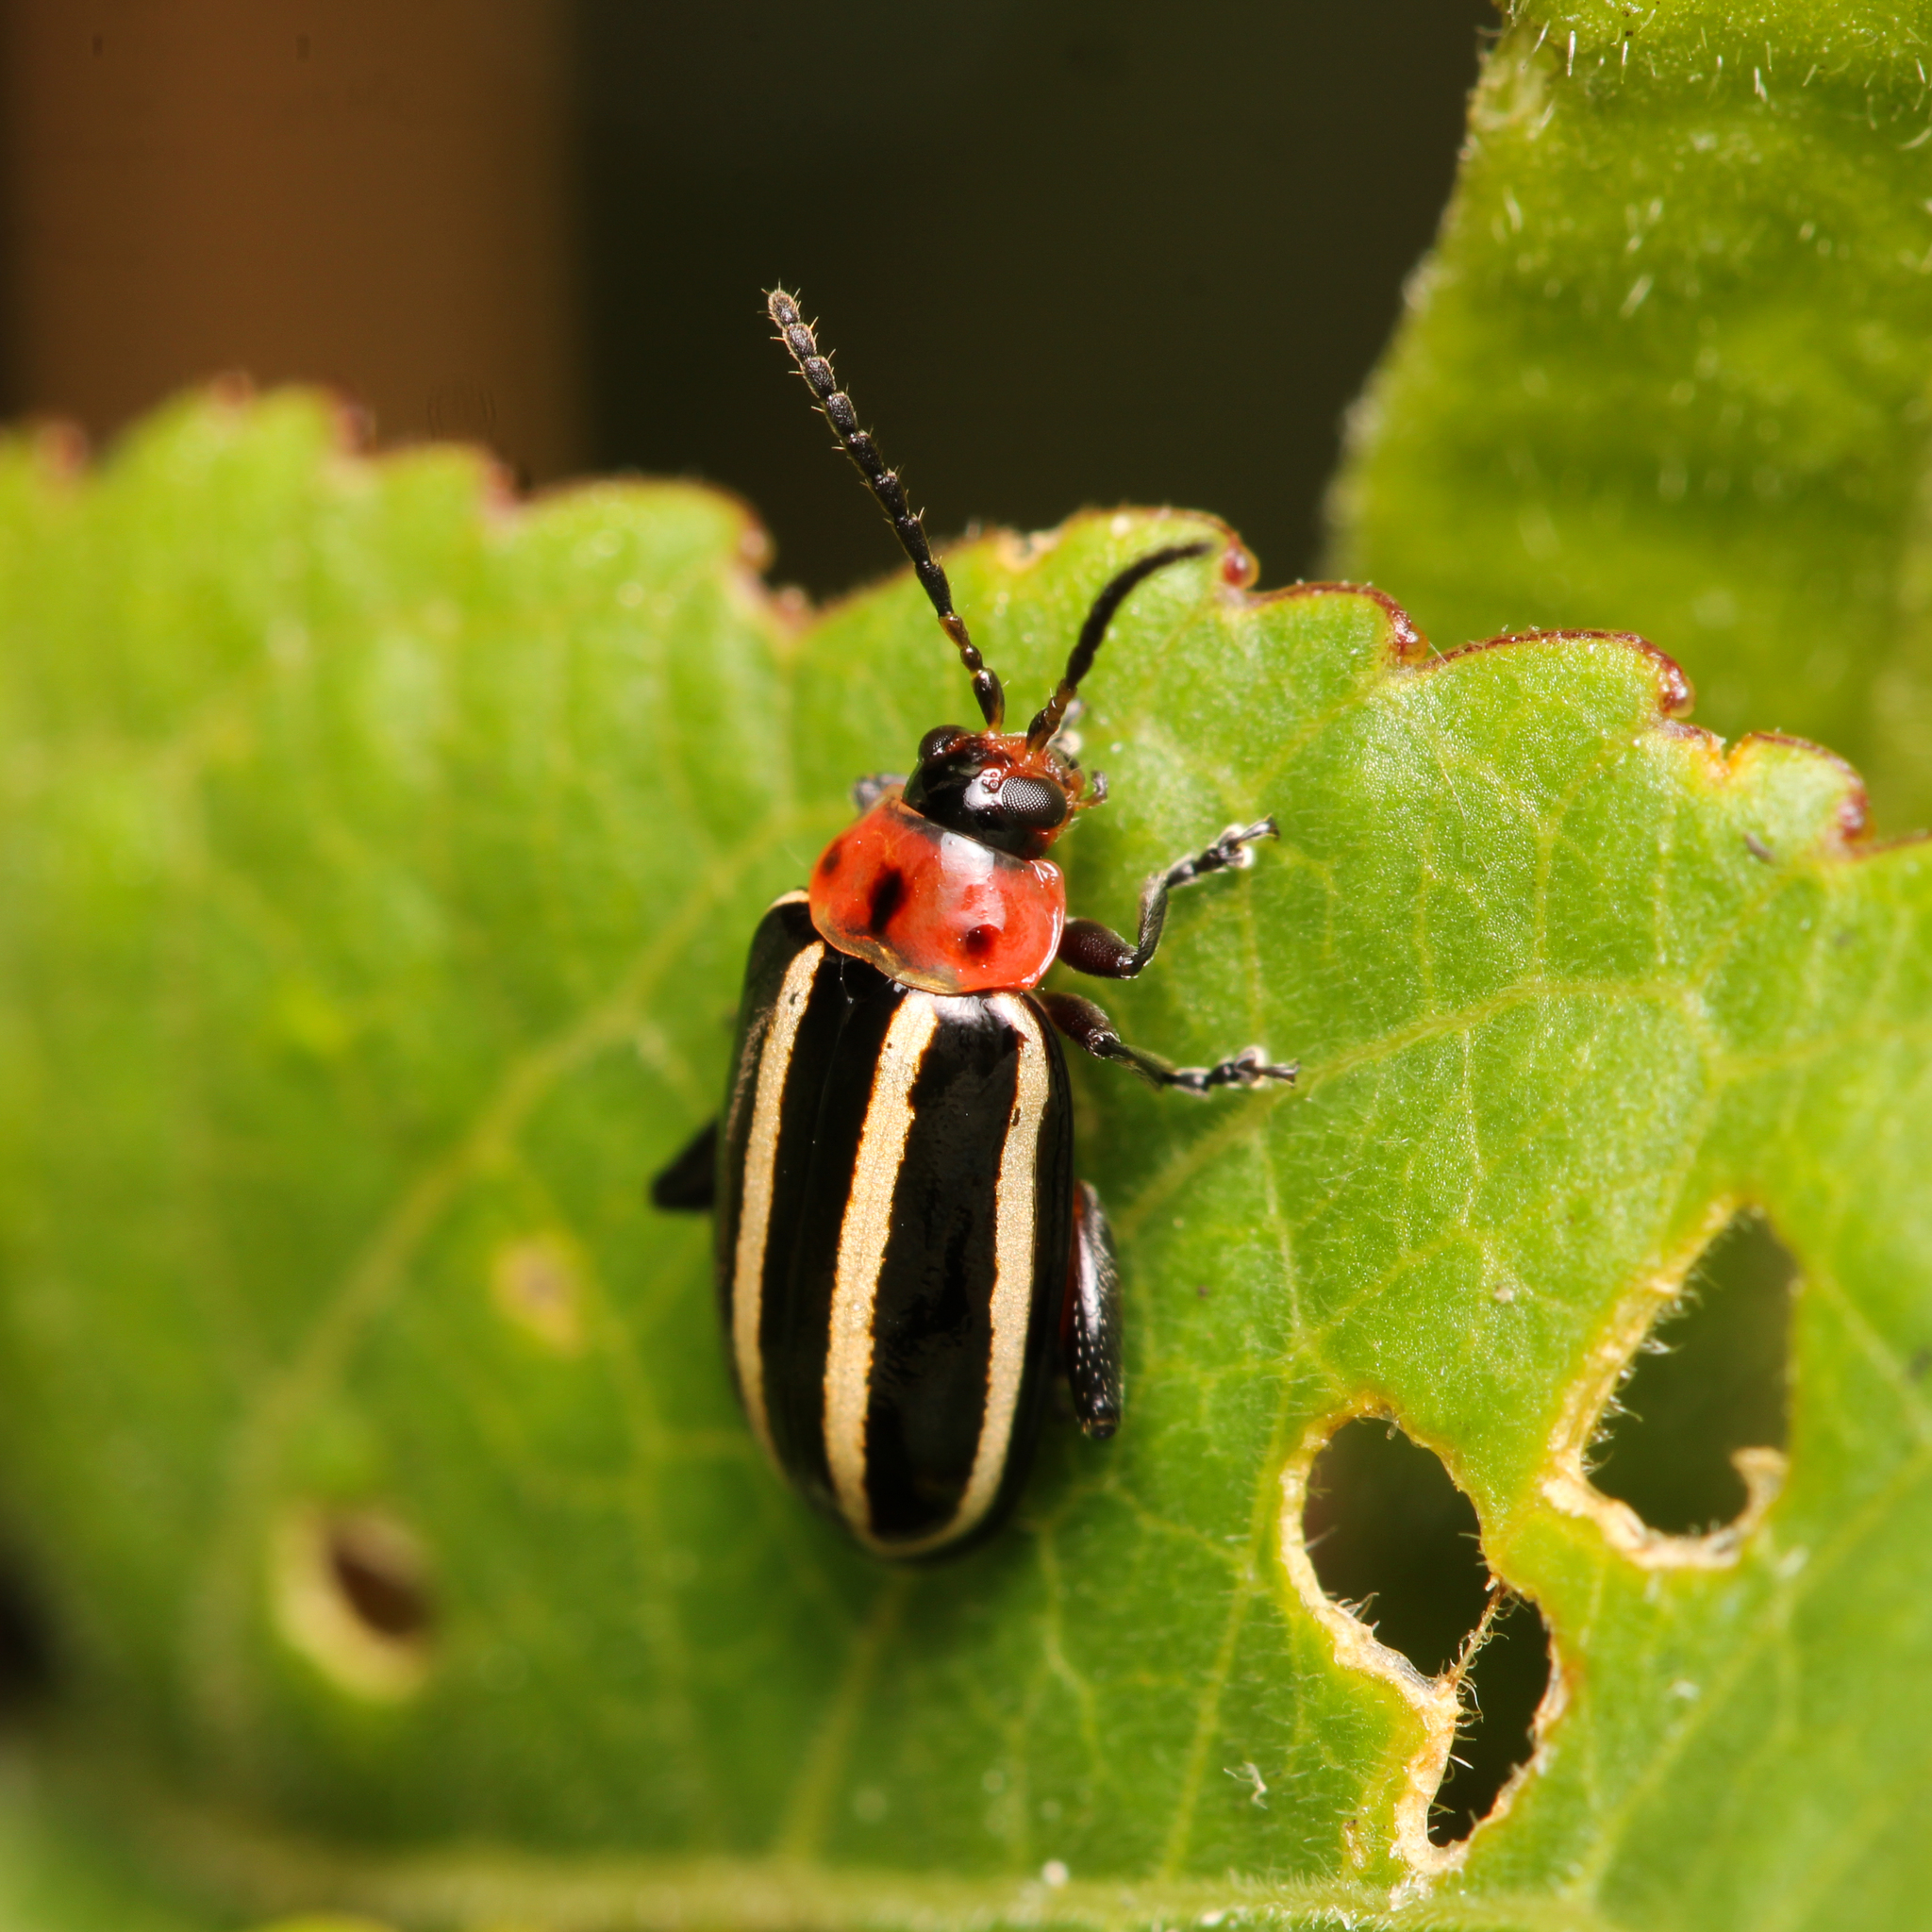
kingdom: Animalia
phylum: Arthropoda
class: Insecta
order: Coleoptera
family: Chrysomelidae
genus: Disonycha
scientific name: Disonycha glabrata
